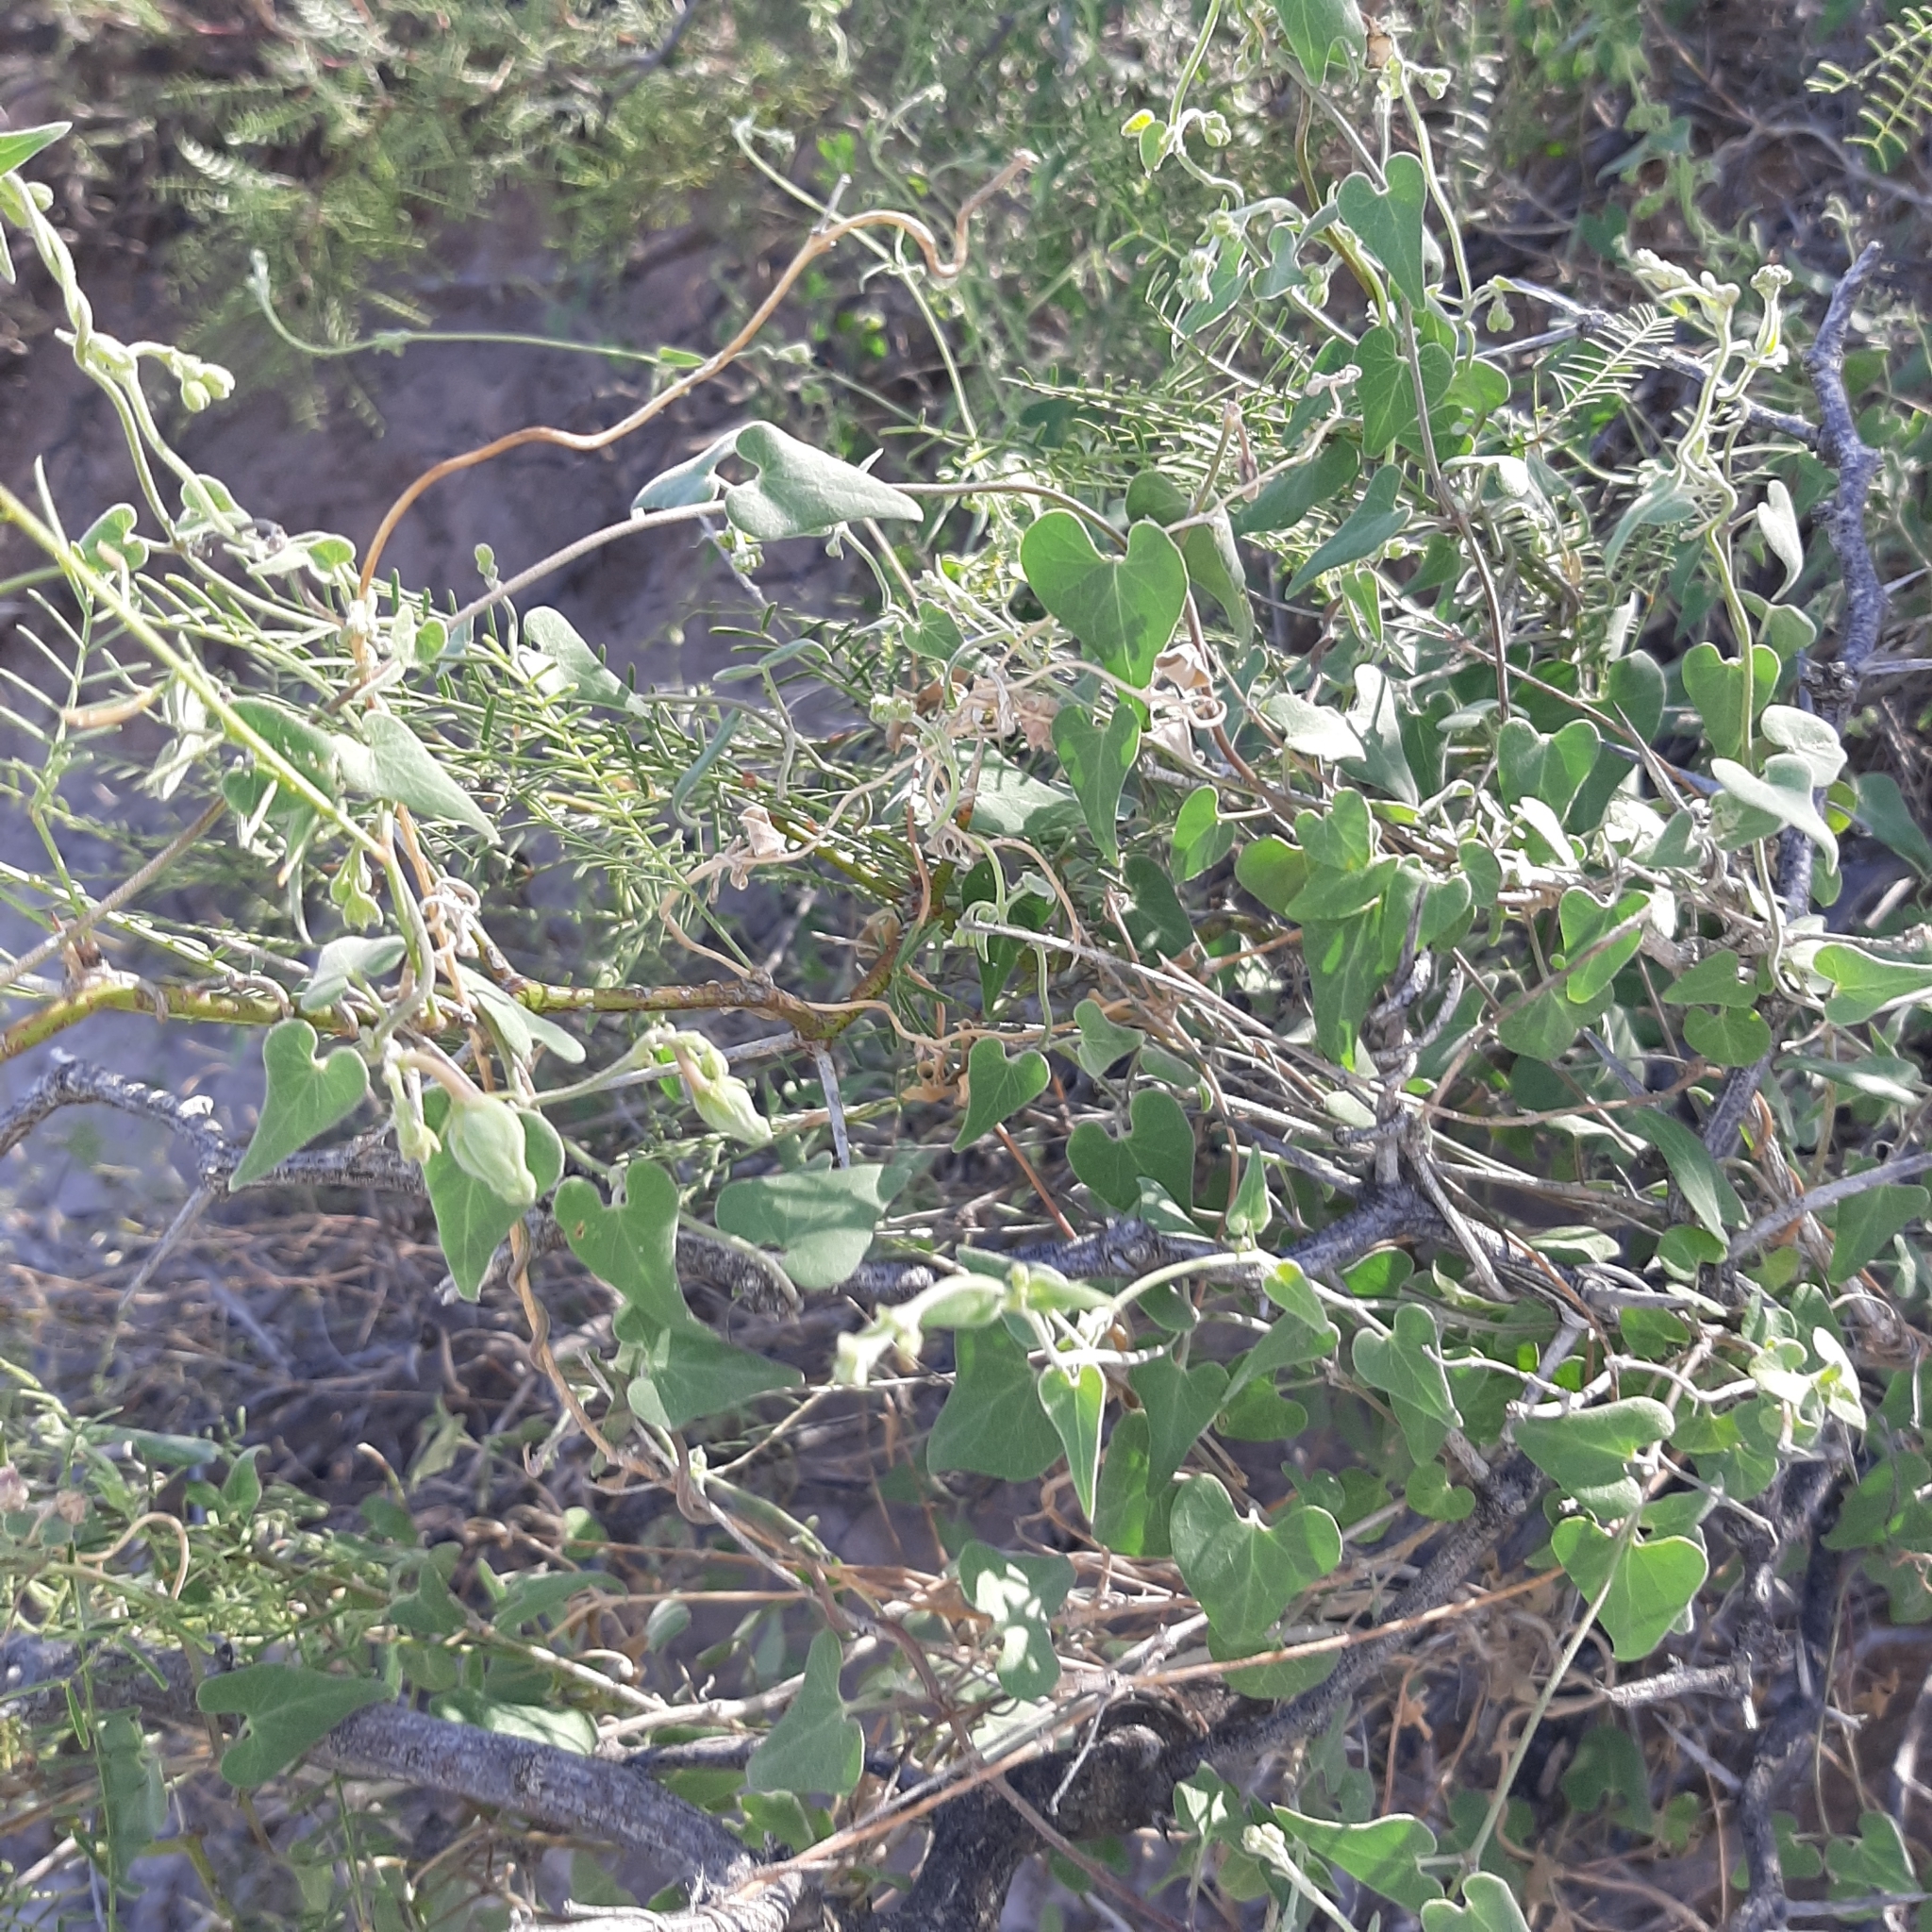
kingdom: Plantae
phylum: Tracheophyta
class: Magnoliopsida
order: Gentianales
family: Apocynaceae
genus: Philibertia
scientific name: Philibertia gilliesii
